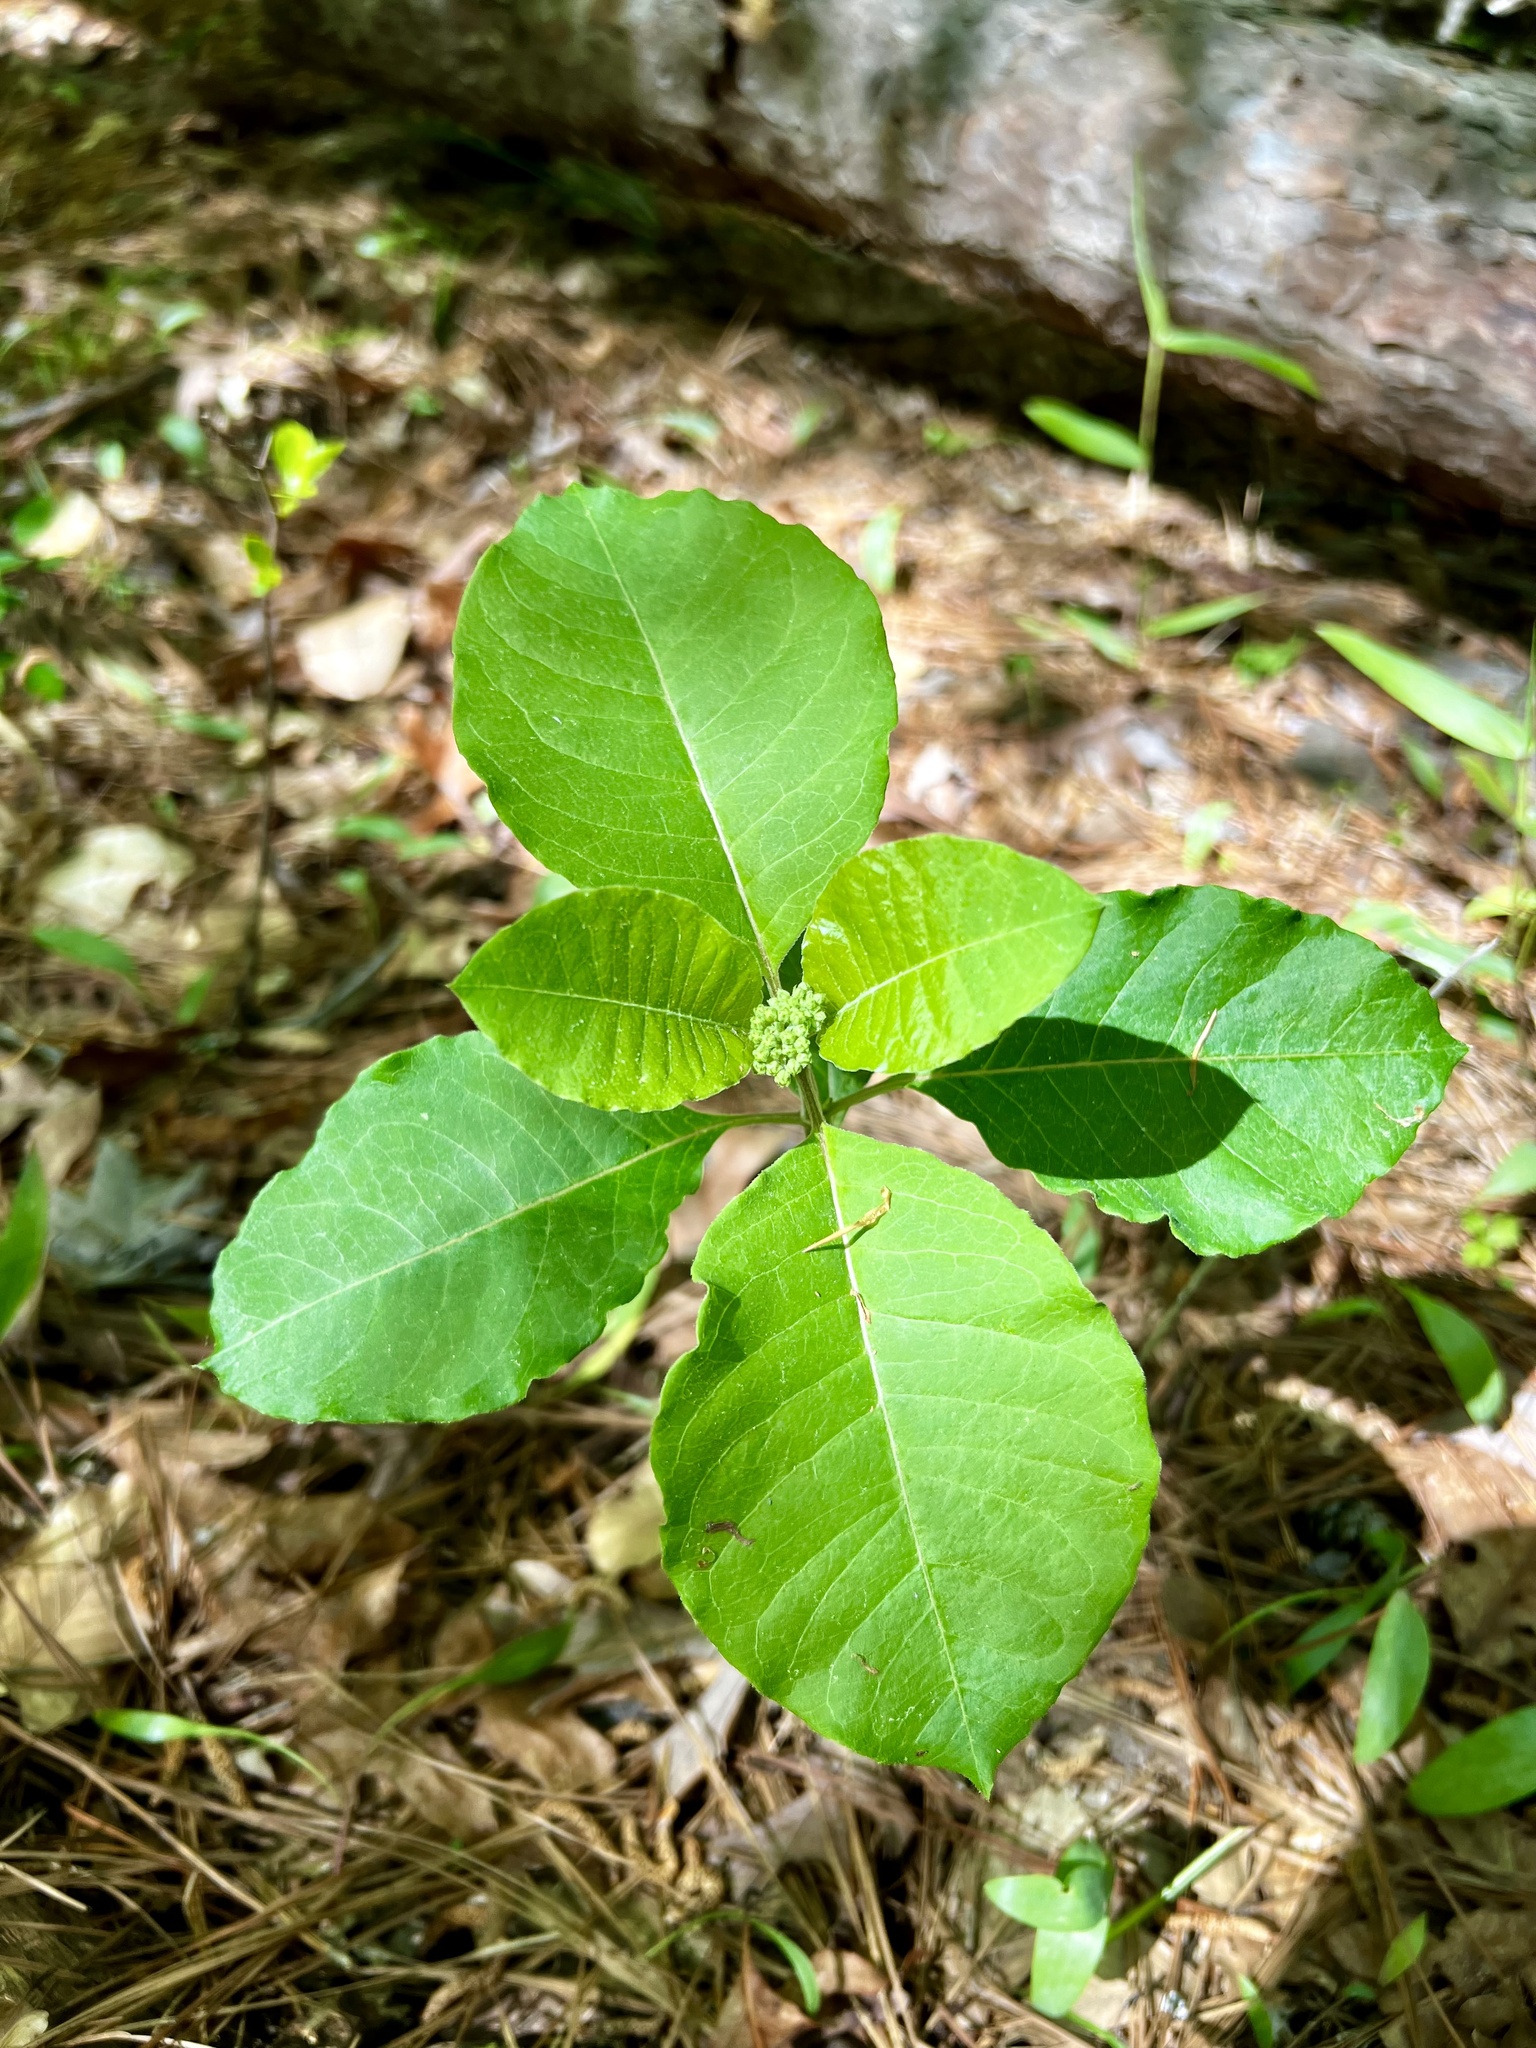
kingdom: Plantae
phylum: Tracheophyta
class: Magnoliopsida
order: Gentianales
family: Apocynaceae
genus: Asclepias
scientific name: Asclepias variegata
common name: Variegated milkweed
